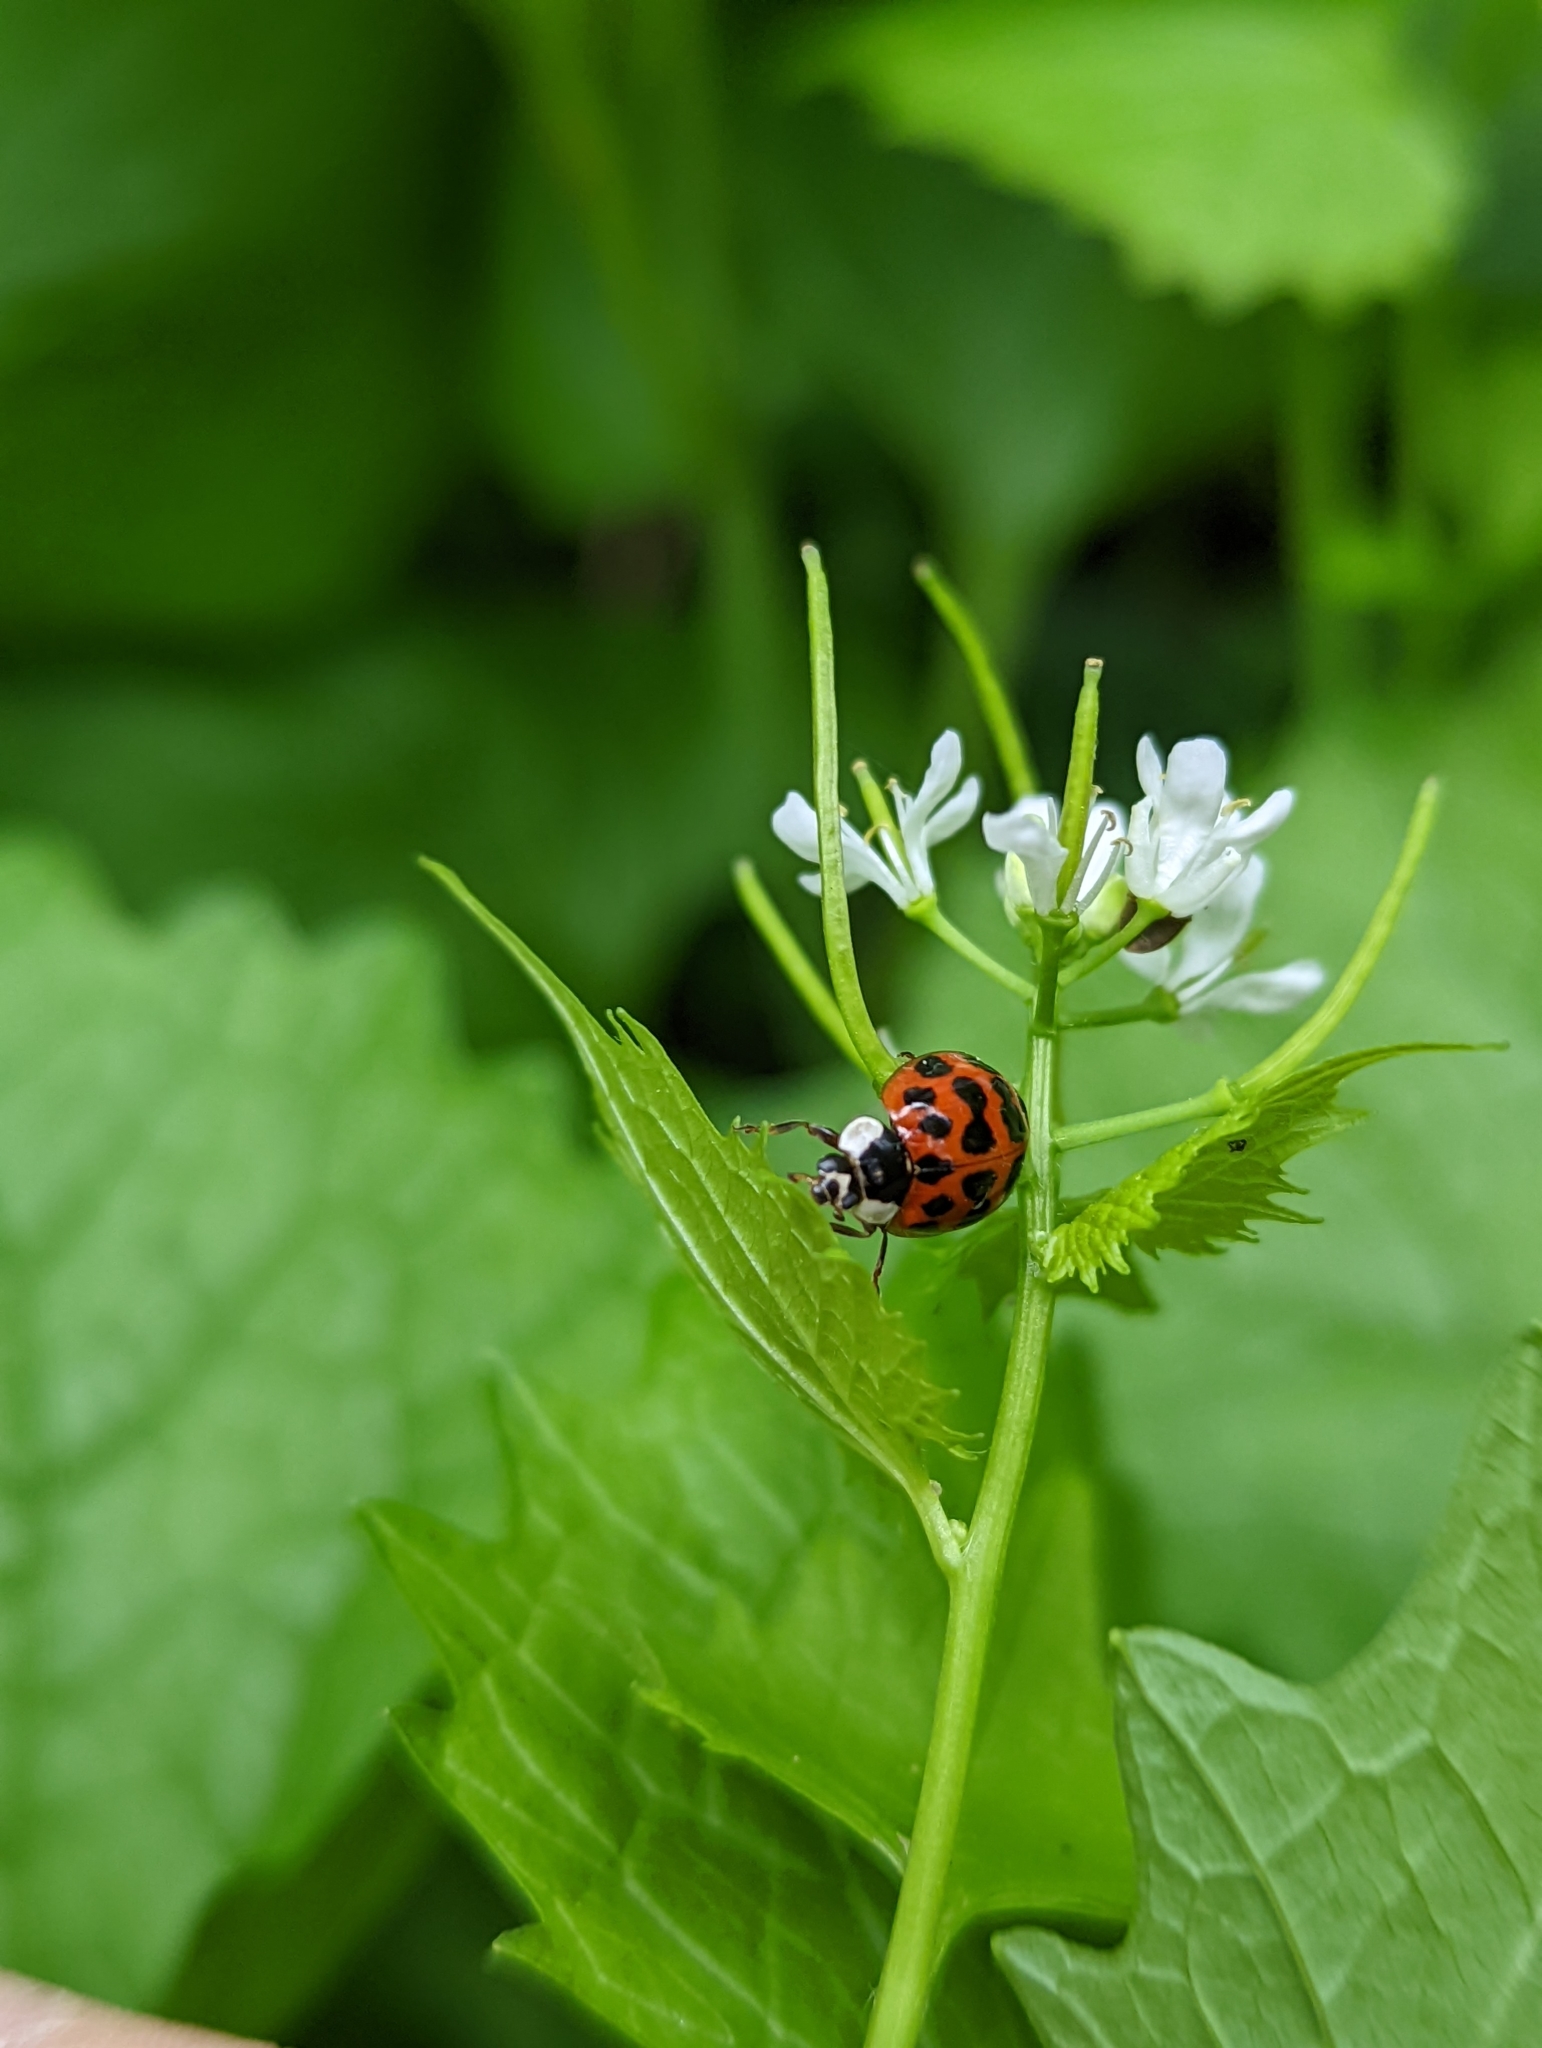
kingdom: Animalia
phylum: Arthropoda
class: Insecta
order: Coleoptera
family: Coccinellidae
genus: Harmonia
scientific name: Harmonia axyridis
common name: Harlequin ladybird
